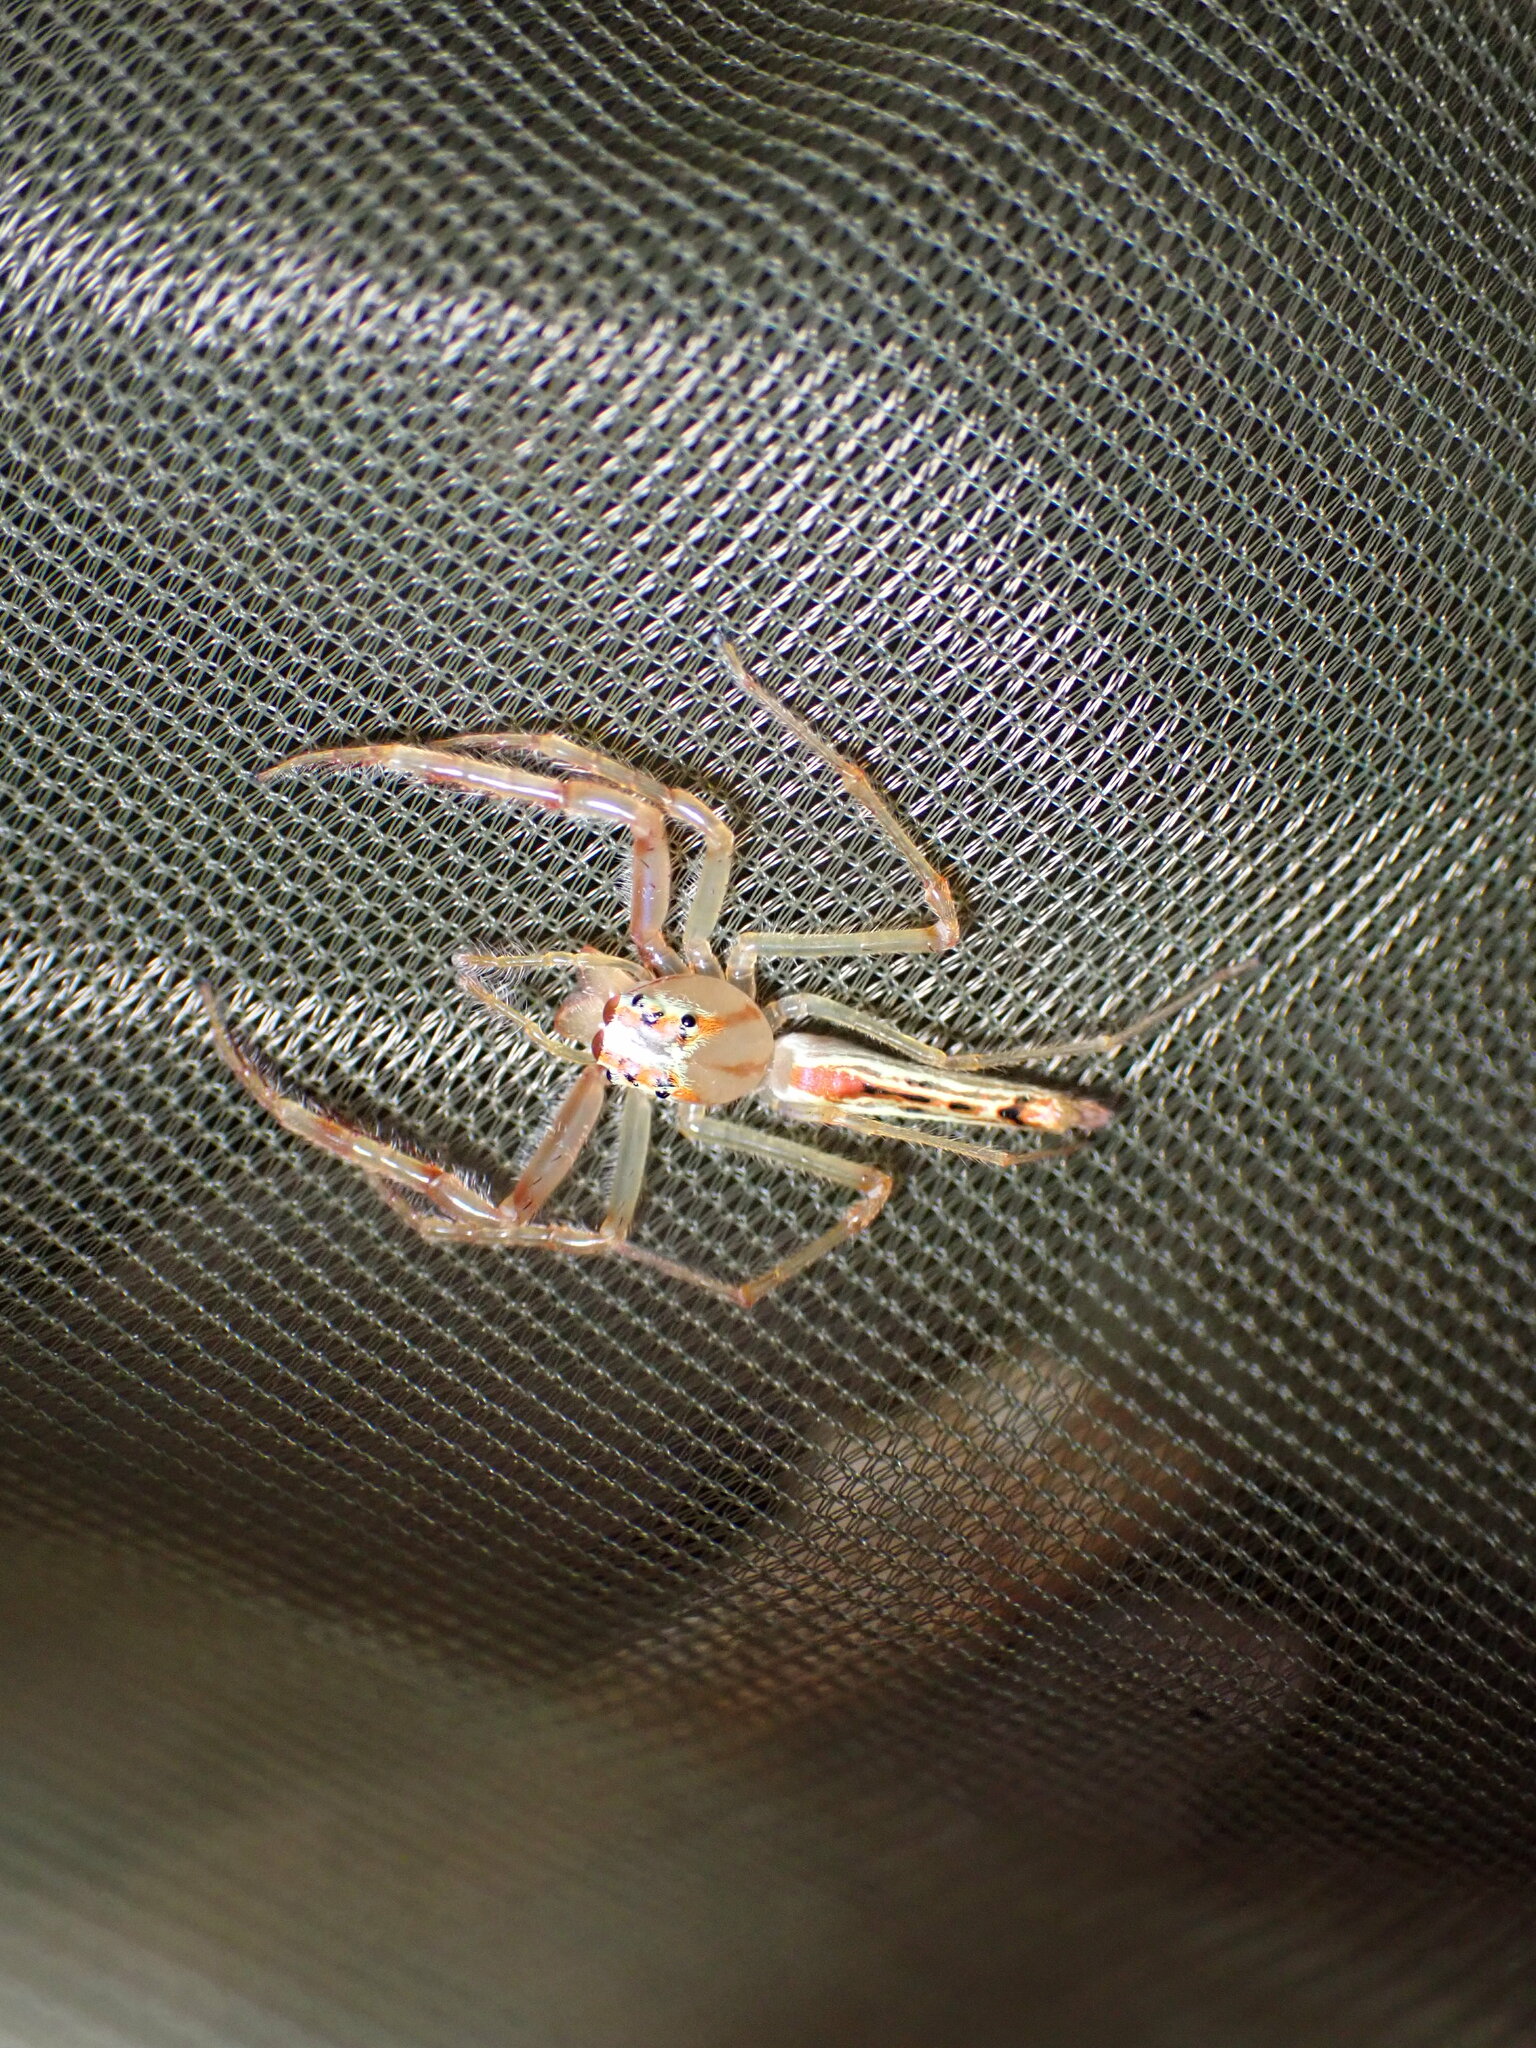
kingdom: Animalia
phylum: Arthropoda
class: Arachnida
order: Araneae
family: Salticidae
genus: Viciria
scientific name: Viciria pavesii
